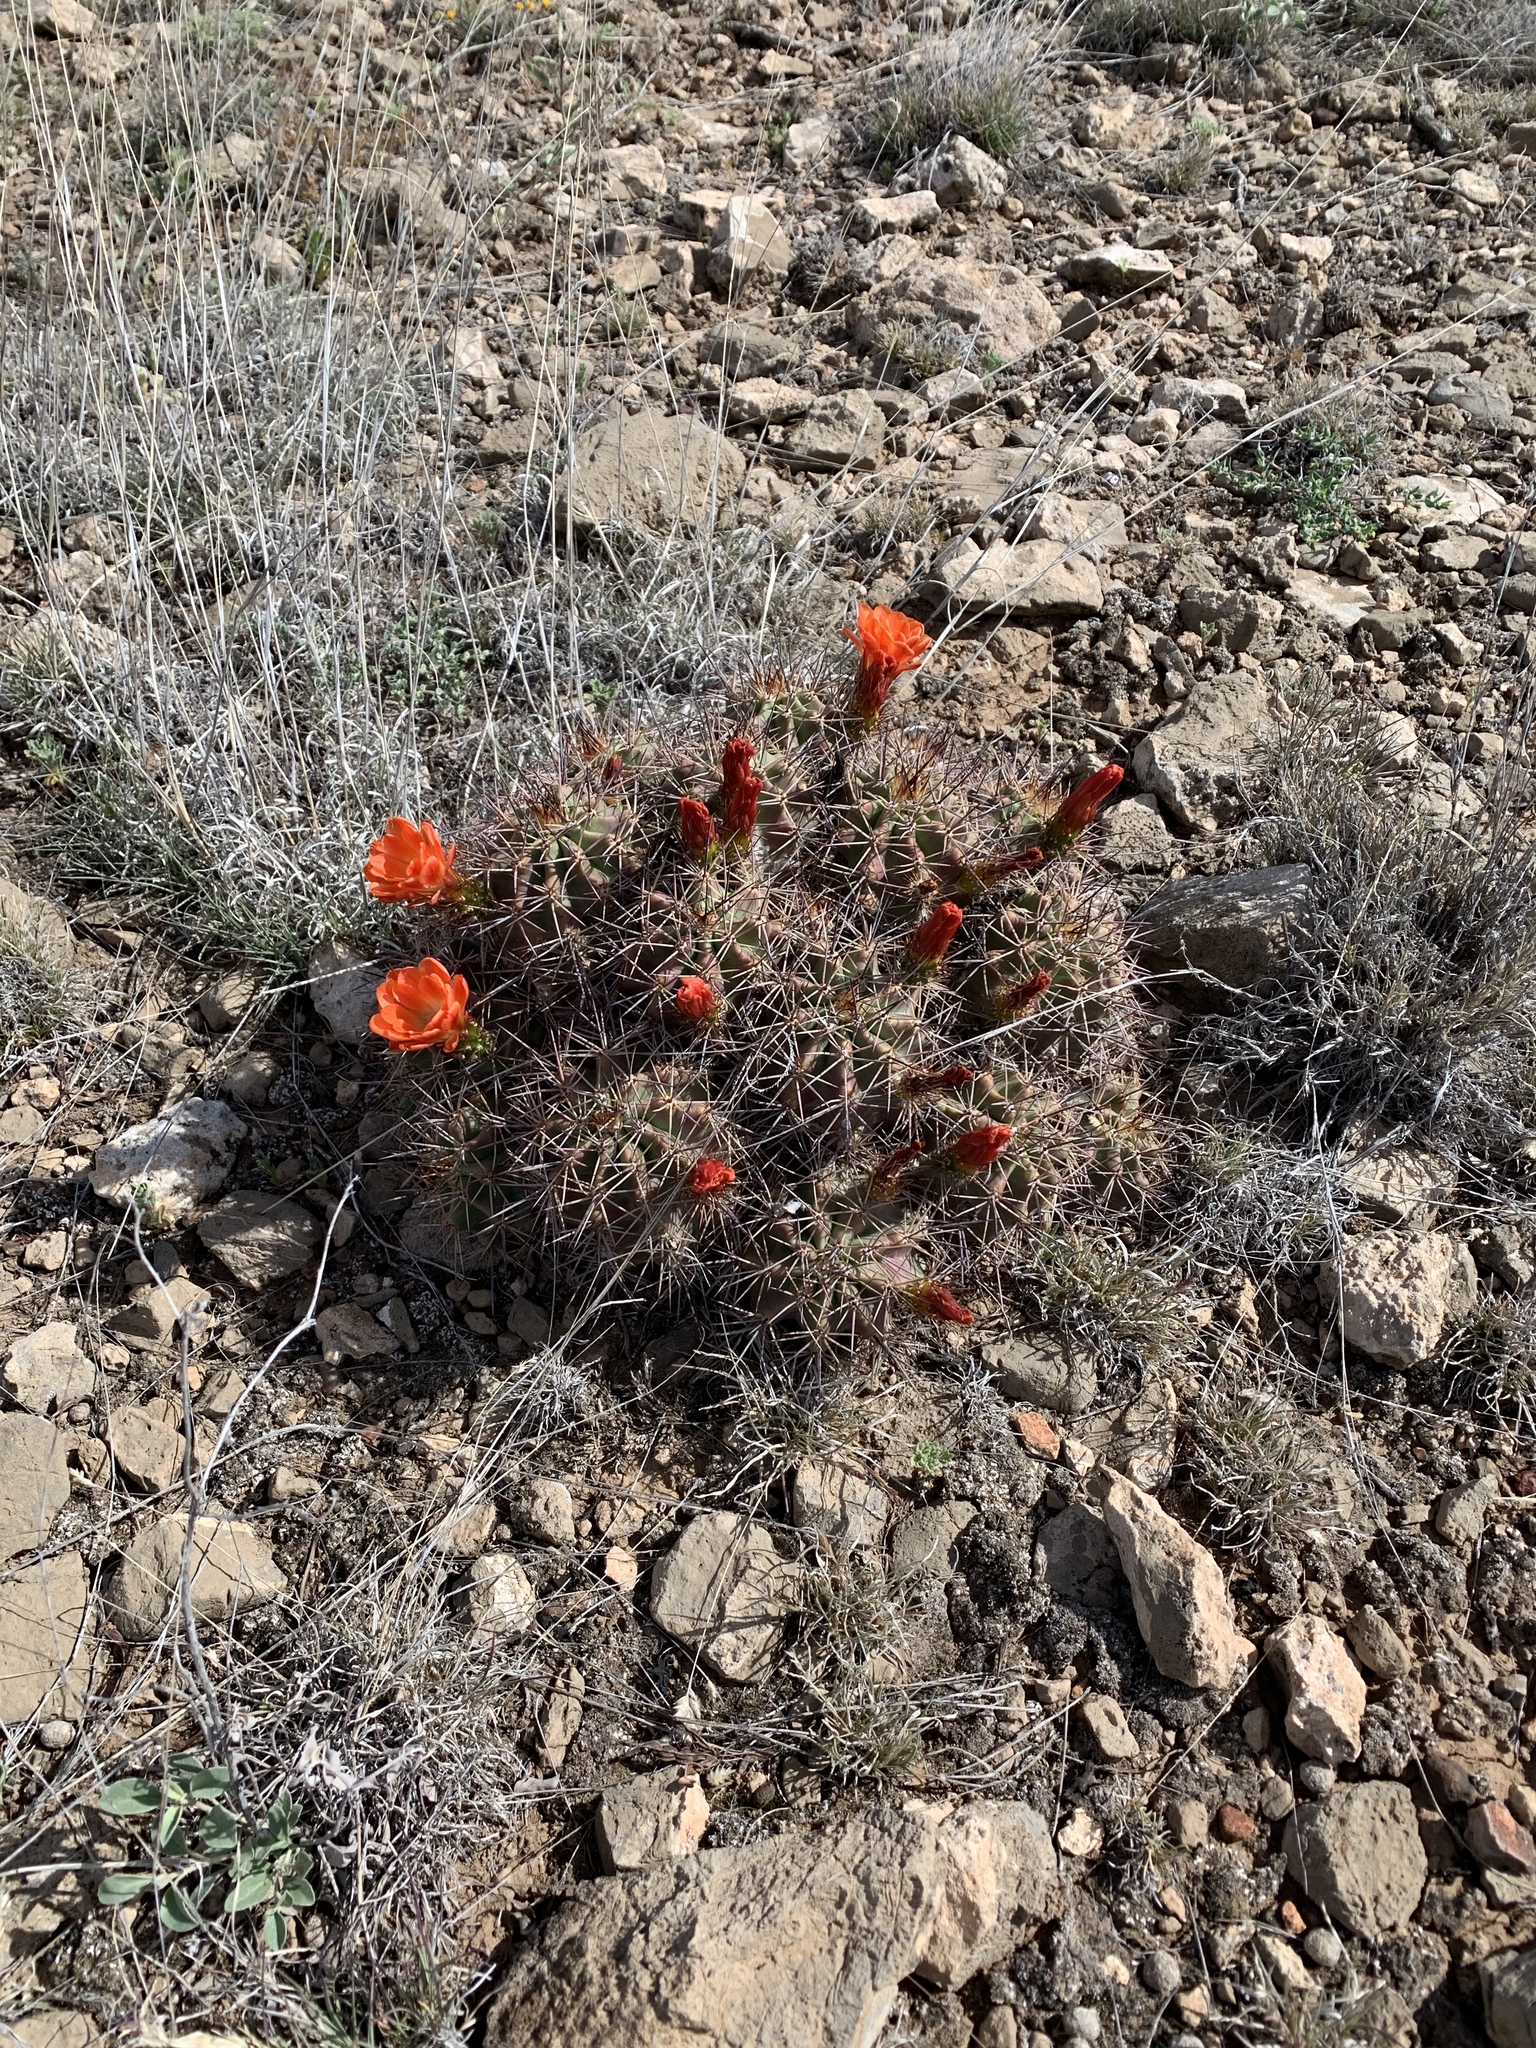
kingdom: Plantae
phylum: Tracheophyta
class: Magnoliopsida
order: Caryophyllales
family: Cactaceae
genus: Echinocereus
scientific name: Echinocereus coccineus
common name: Scarlet hedgehog cactus
